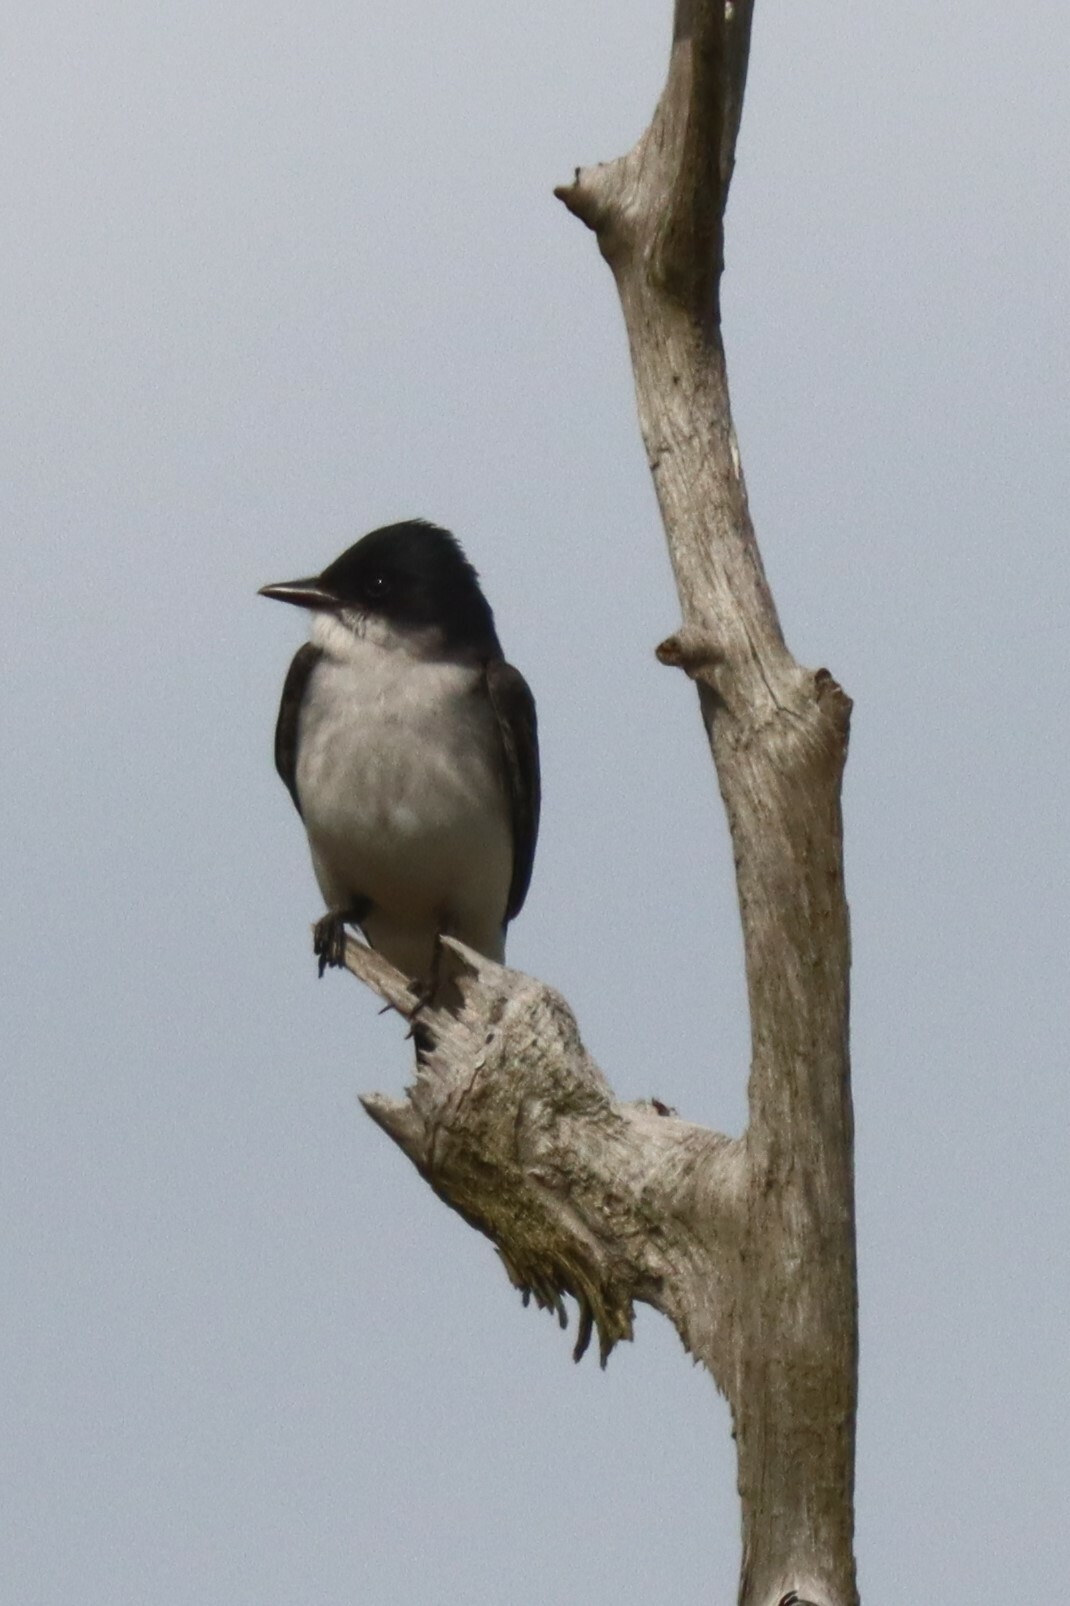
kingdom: Animalia
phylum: Chordata
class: Aves
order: Passeriformes
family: Tyrannidae
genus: Tyrannus
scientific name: Tyrannus tyrannus
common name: Eastern kingbird
